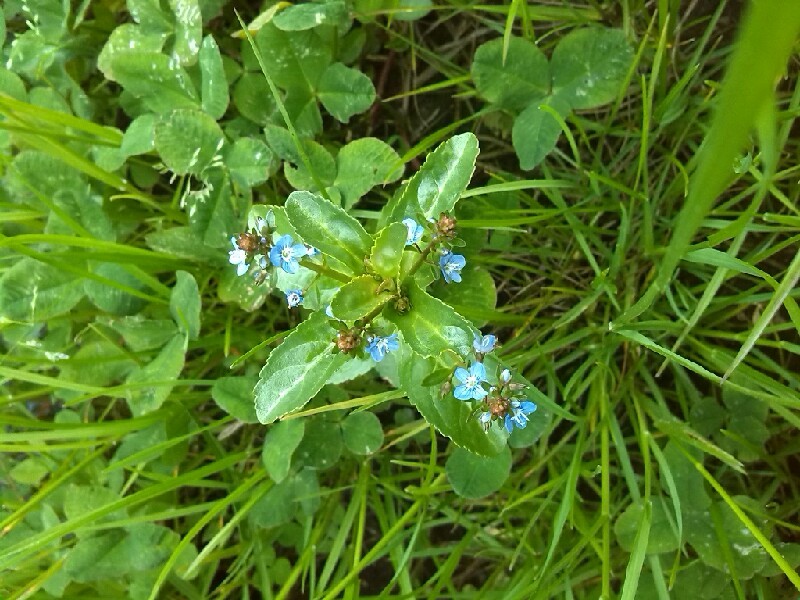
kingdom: Plantae
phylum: Tracheophyta
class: Magnoliopsida
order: Lamiales
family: Plantaginaceae
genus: Veronica
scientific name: Veronica beccabunga
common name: Brooklime
